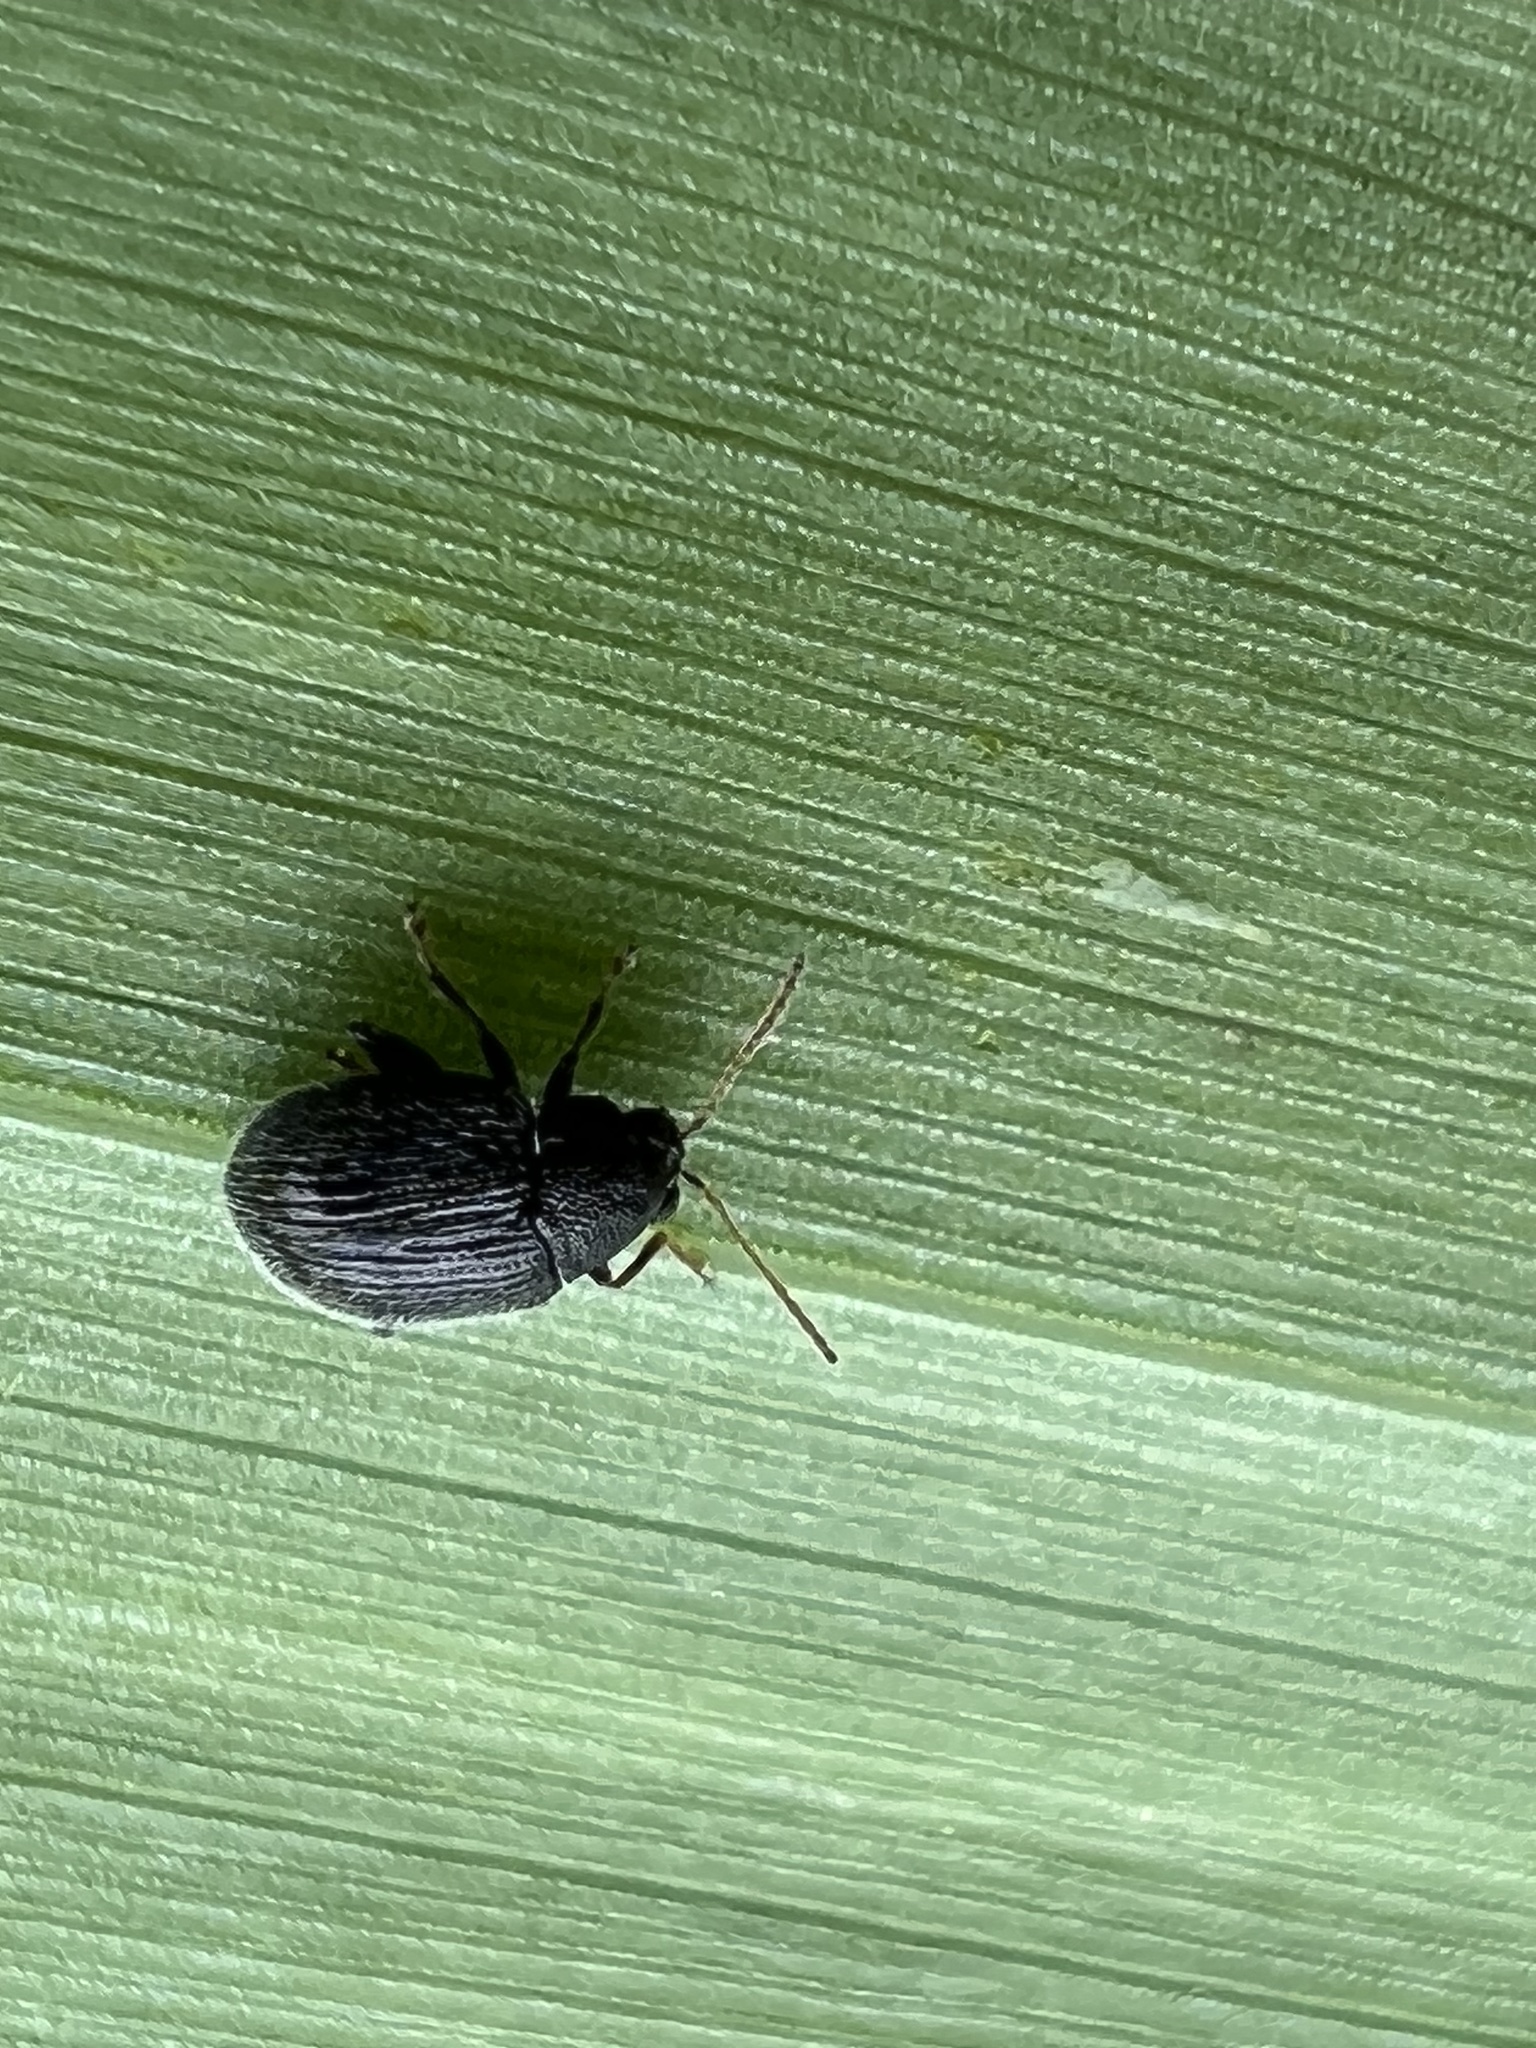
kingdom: Animalia
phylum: Arthropoda
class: Insecta
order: Coleoptera
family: Chrysomelidae
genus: Epitrix
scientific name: Epitrix fuscula
